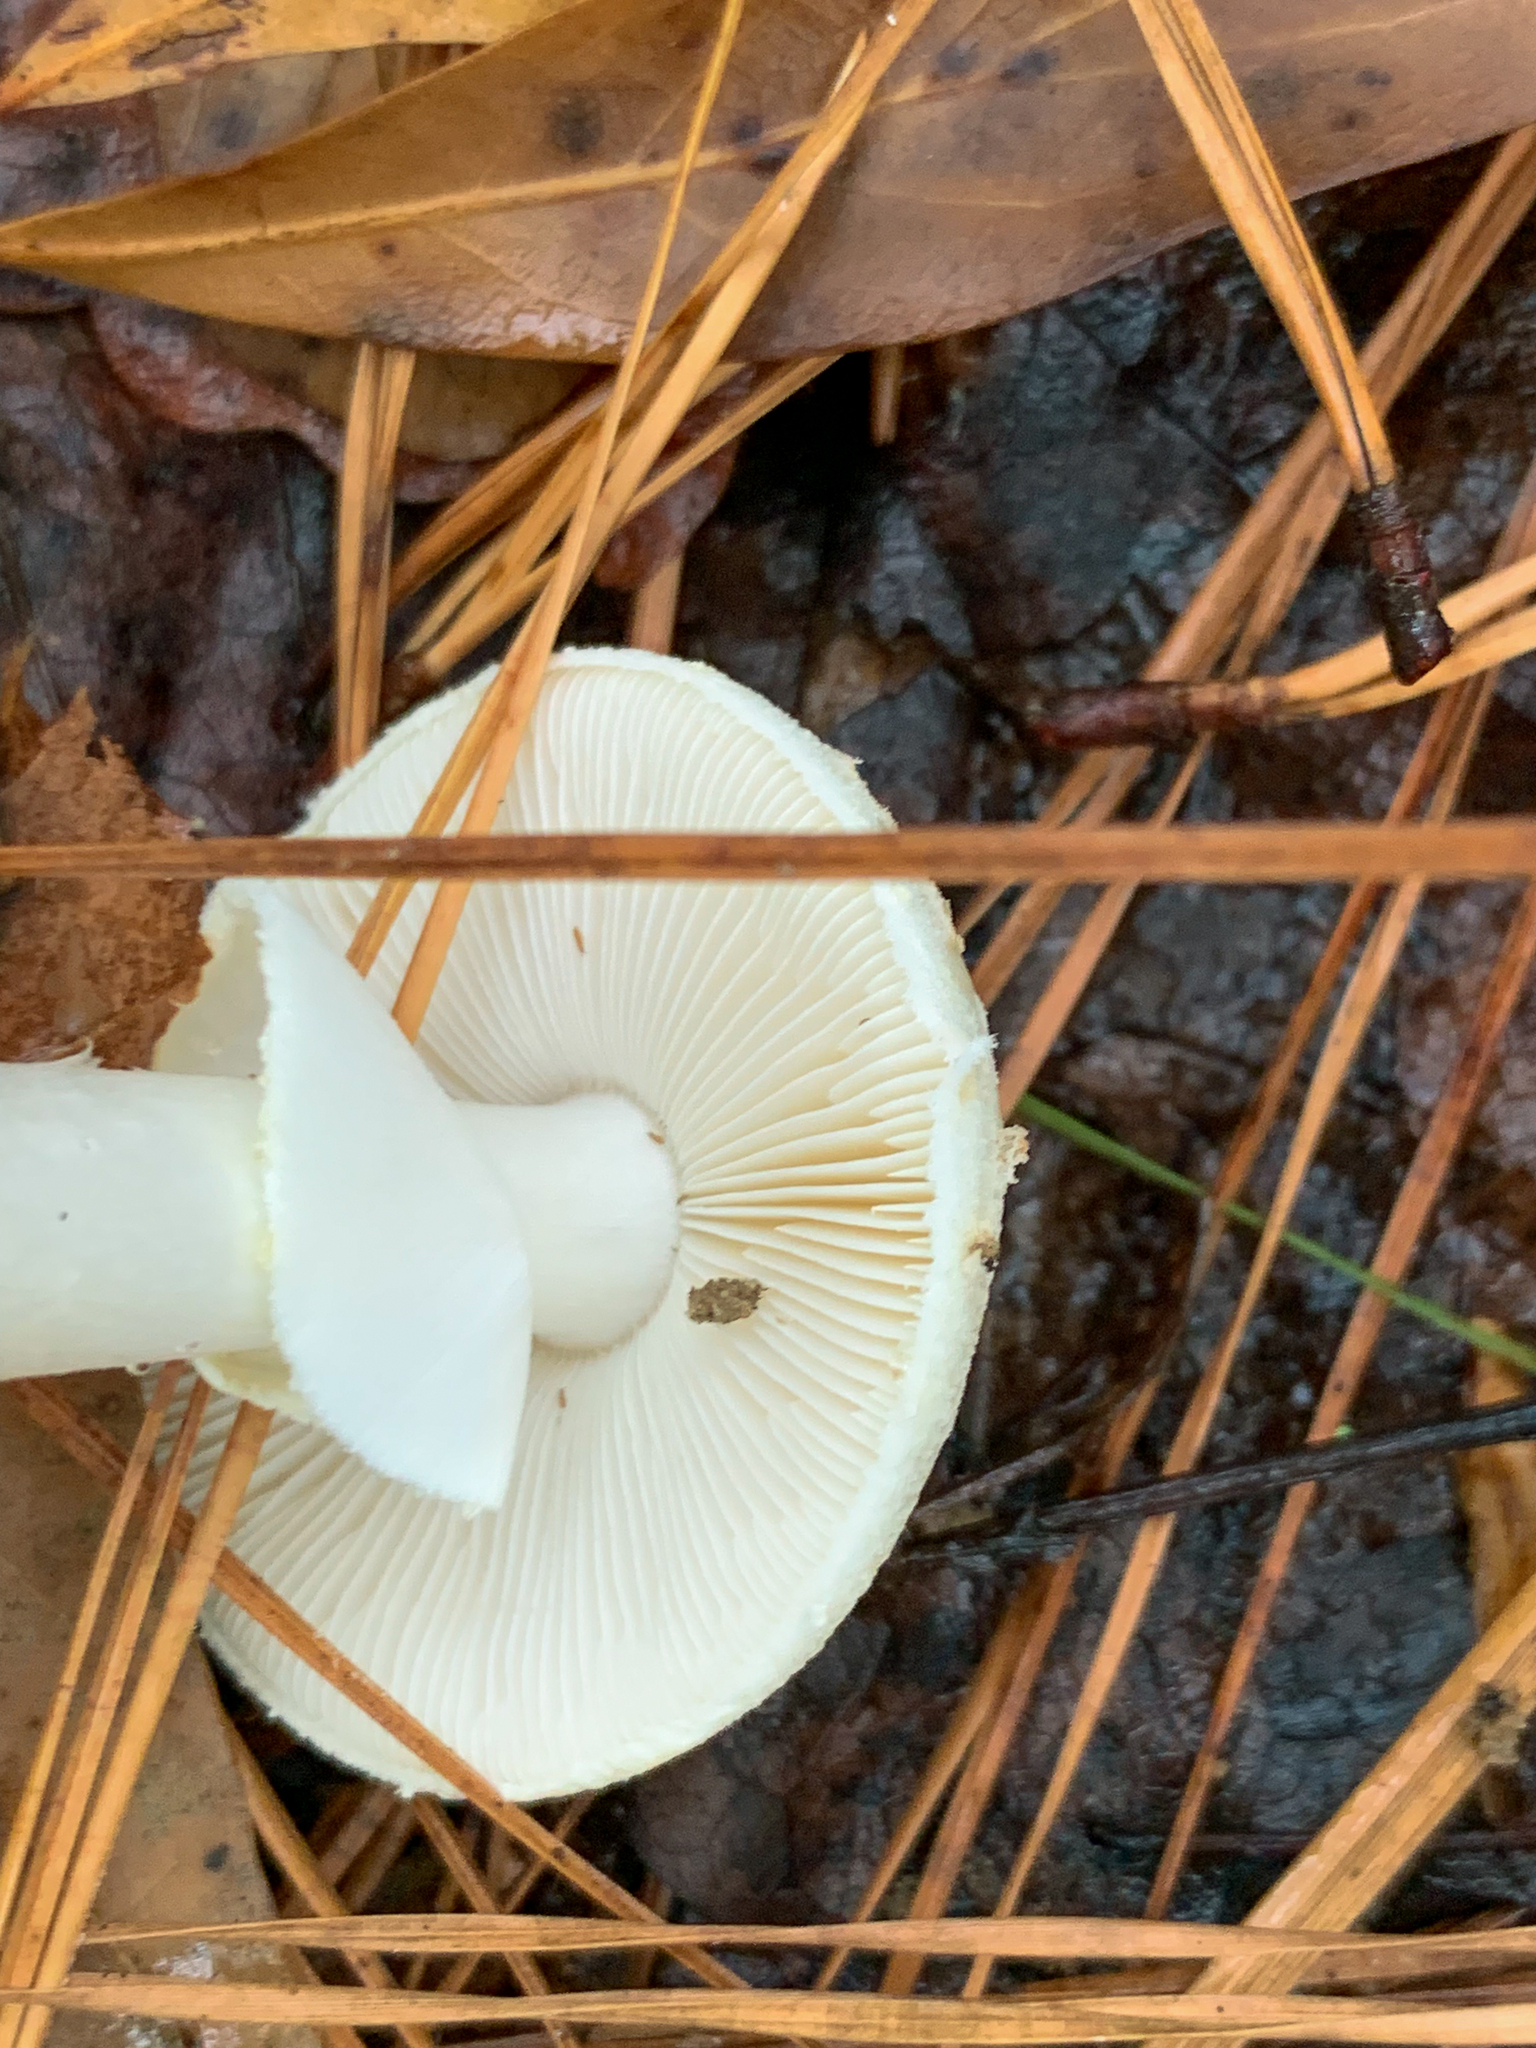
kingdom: Fungi
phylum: Basidiomycota
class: Agaricomycetes
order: Agaricales
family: Amanitaceae
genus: Amanita
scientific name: Amanita lavendula
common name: Coker's lavender staining amanita
